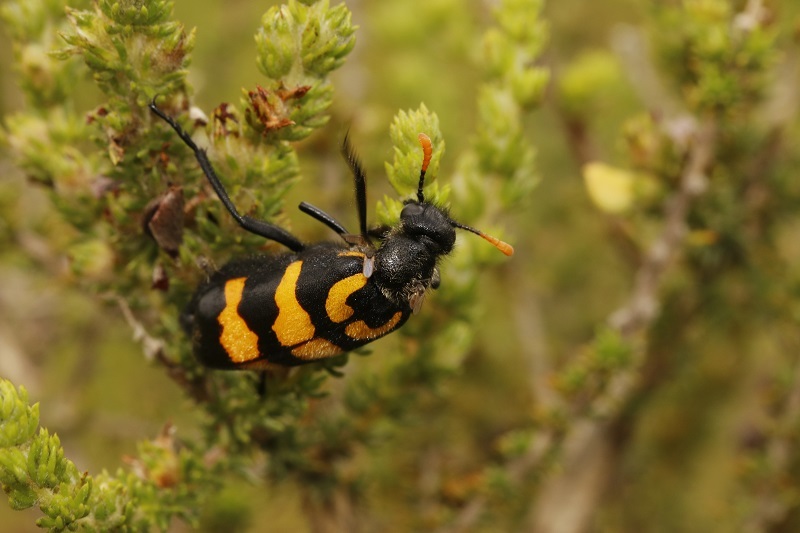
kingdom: Animalia
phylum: Arthropoda
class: Insecta
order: Coleoptera
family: Meloidae
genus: Meloe
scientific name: Meloe lunata
